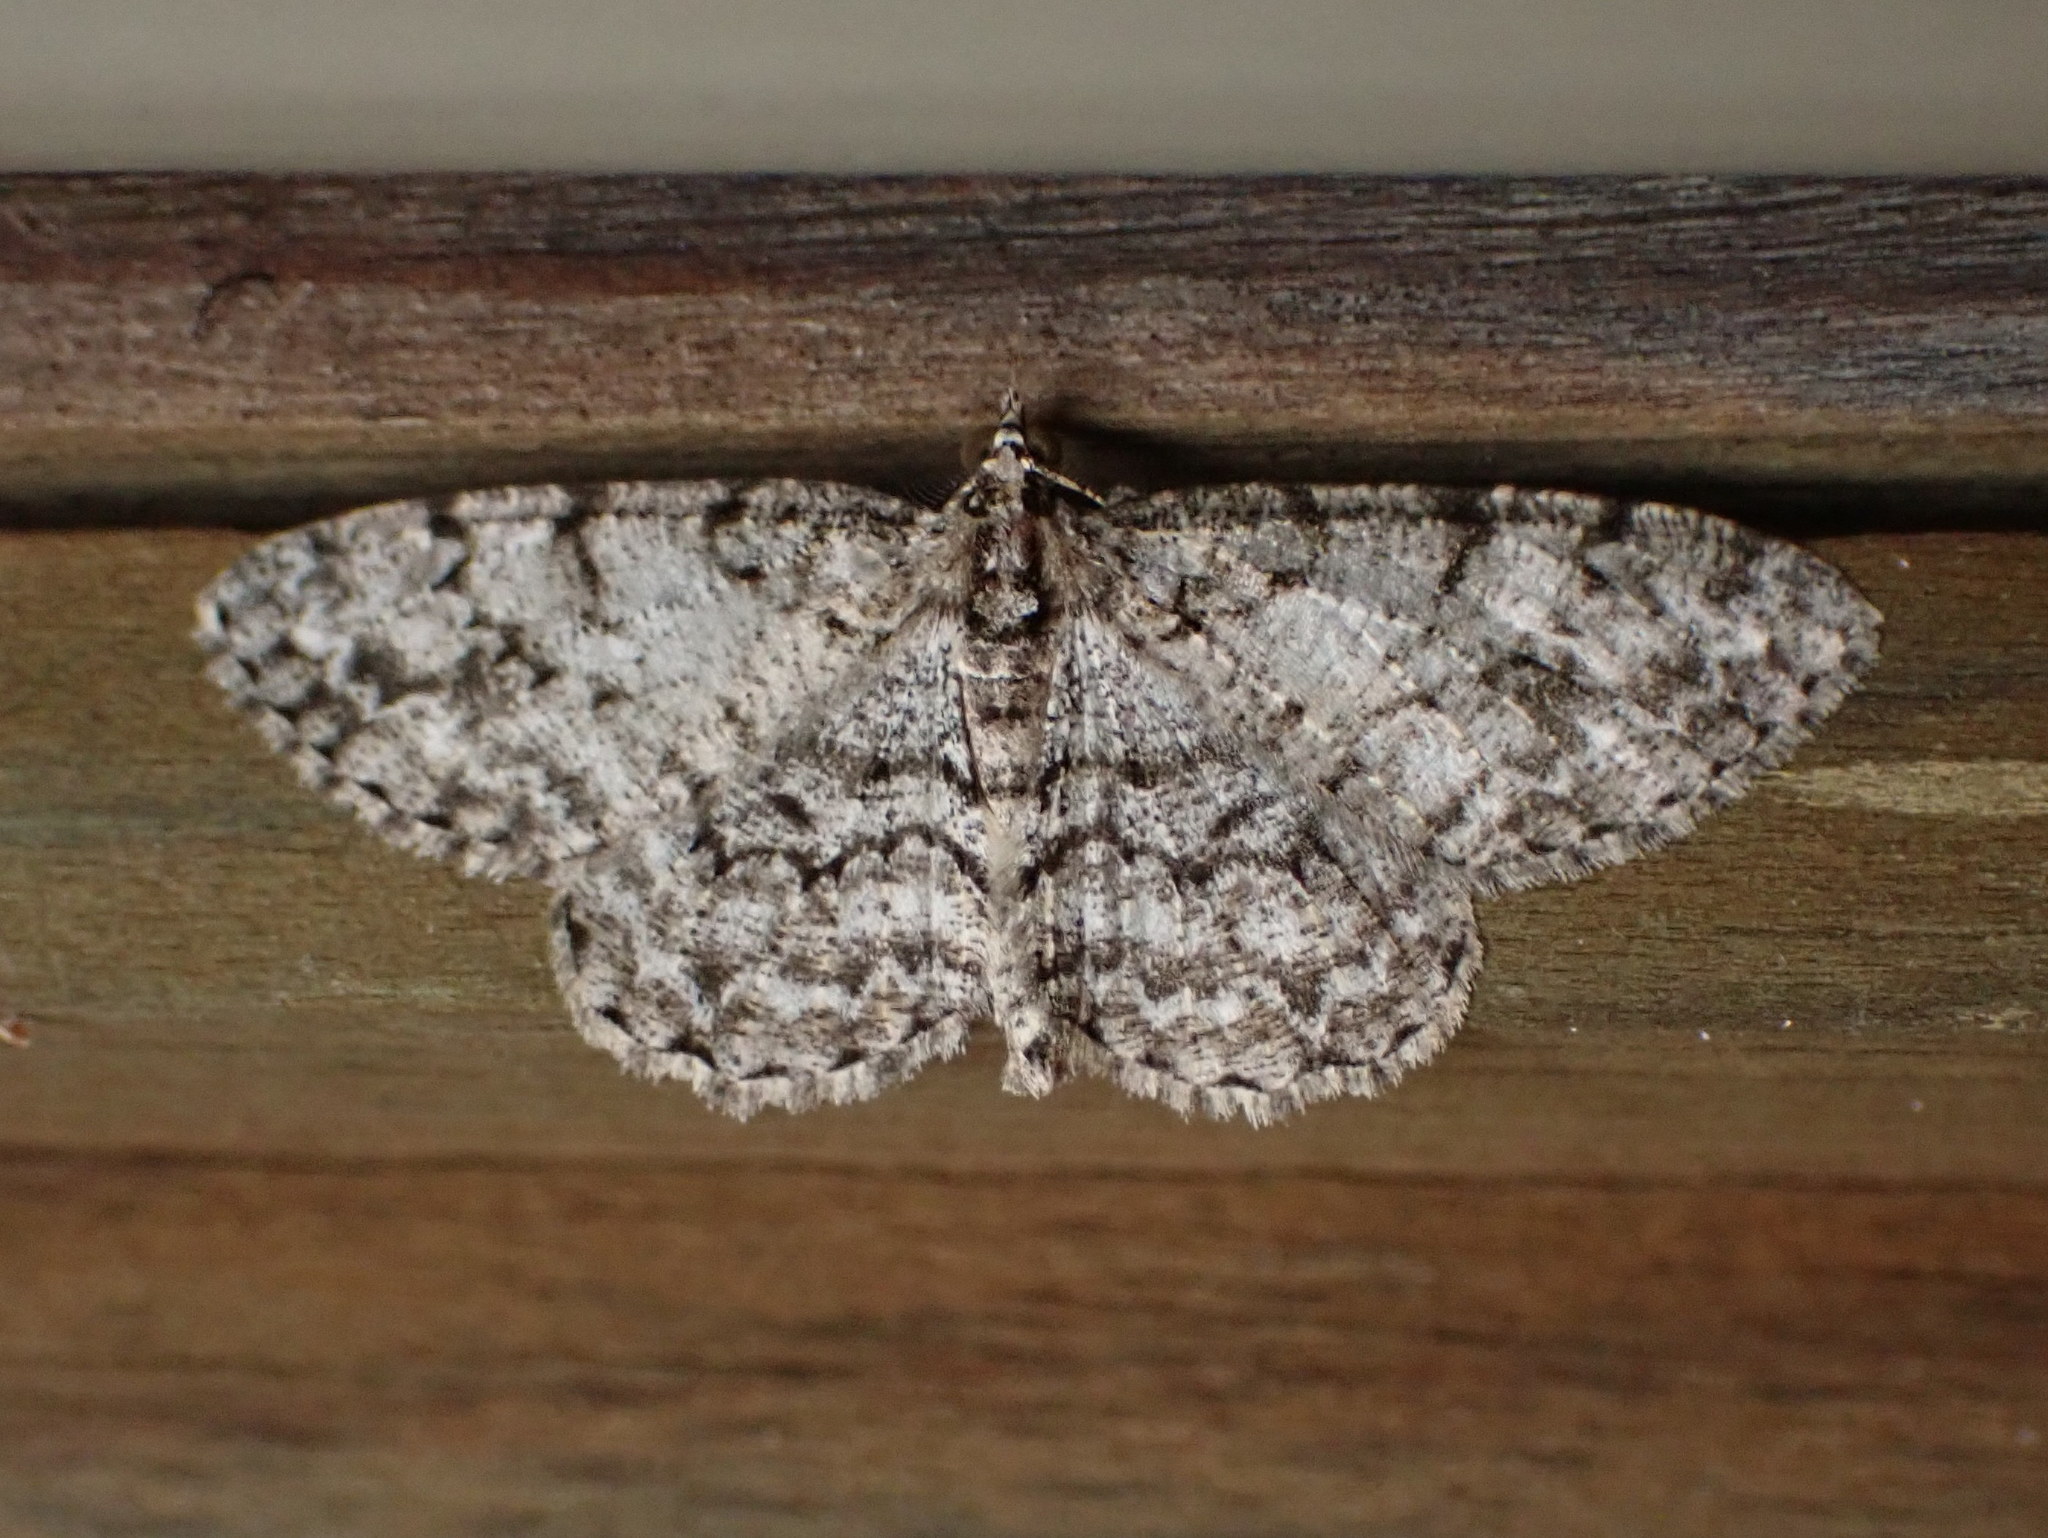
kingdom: Animalia
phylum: Arthropoda
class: Insecta
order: Lepidoptera
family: Geometridae
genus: Protoboarmia
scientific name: Protoboarmia porcelaria
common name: Porcelain gray
